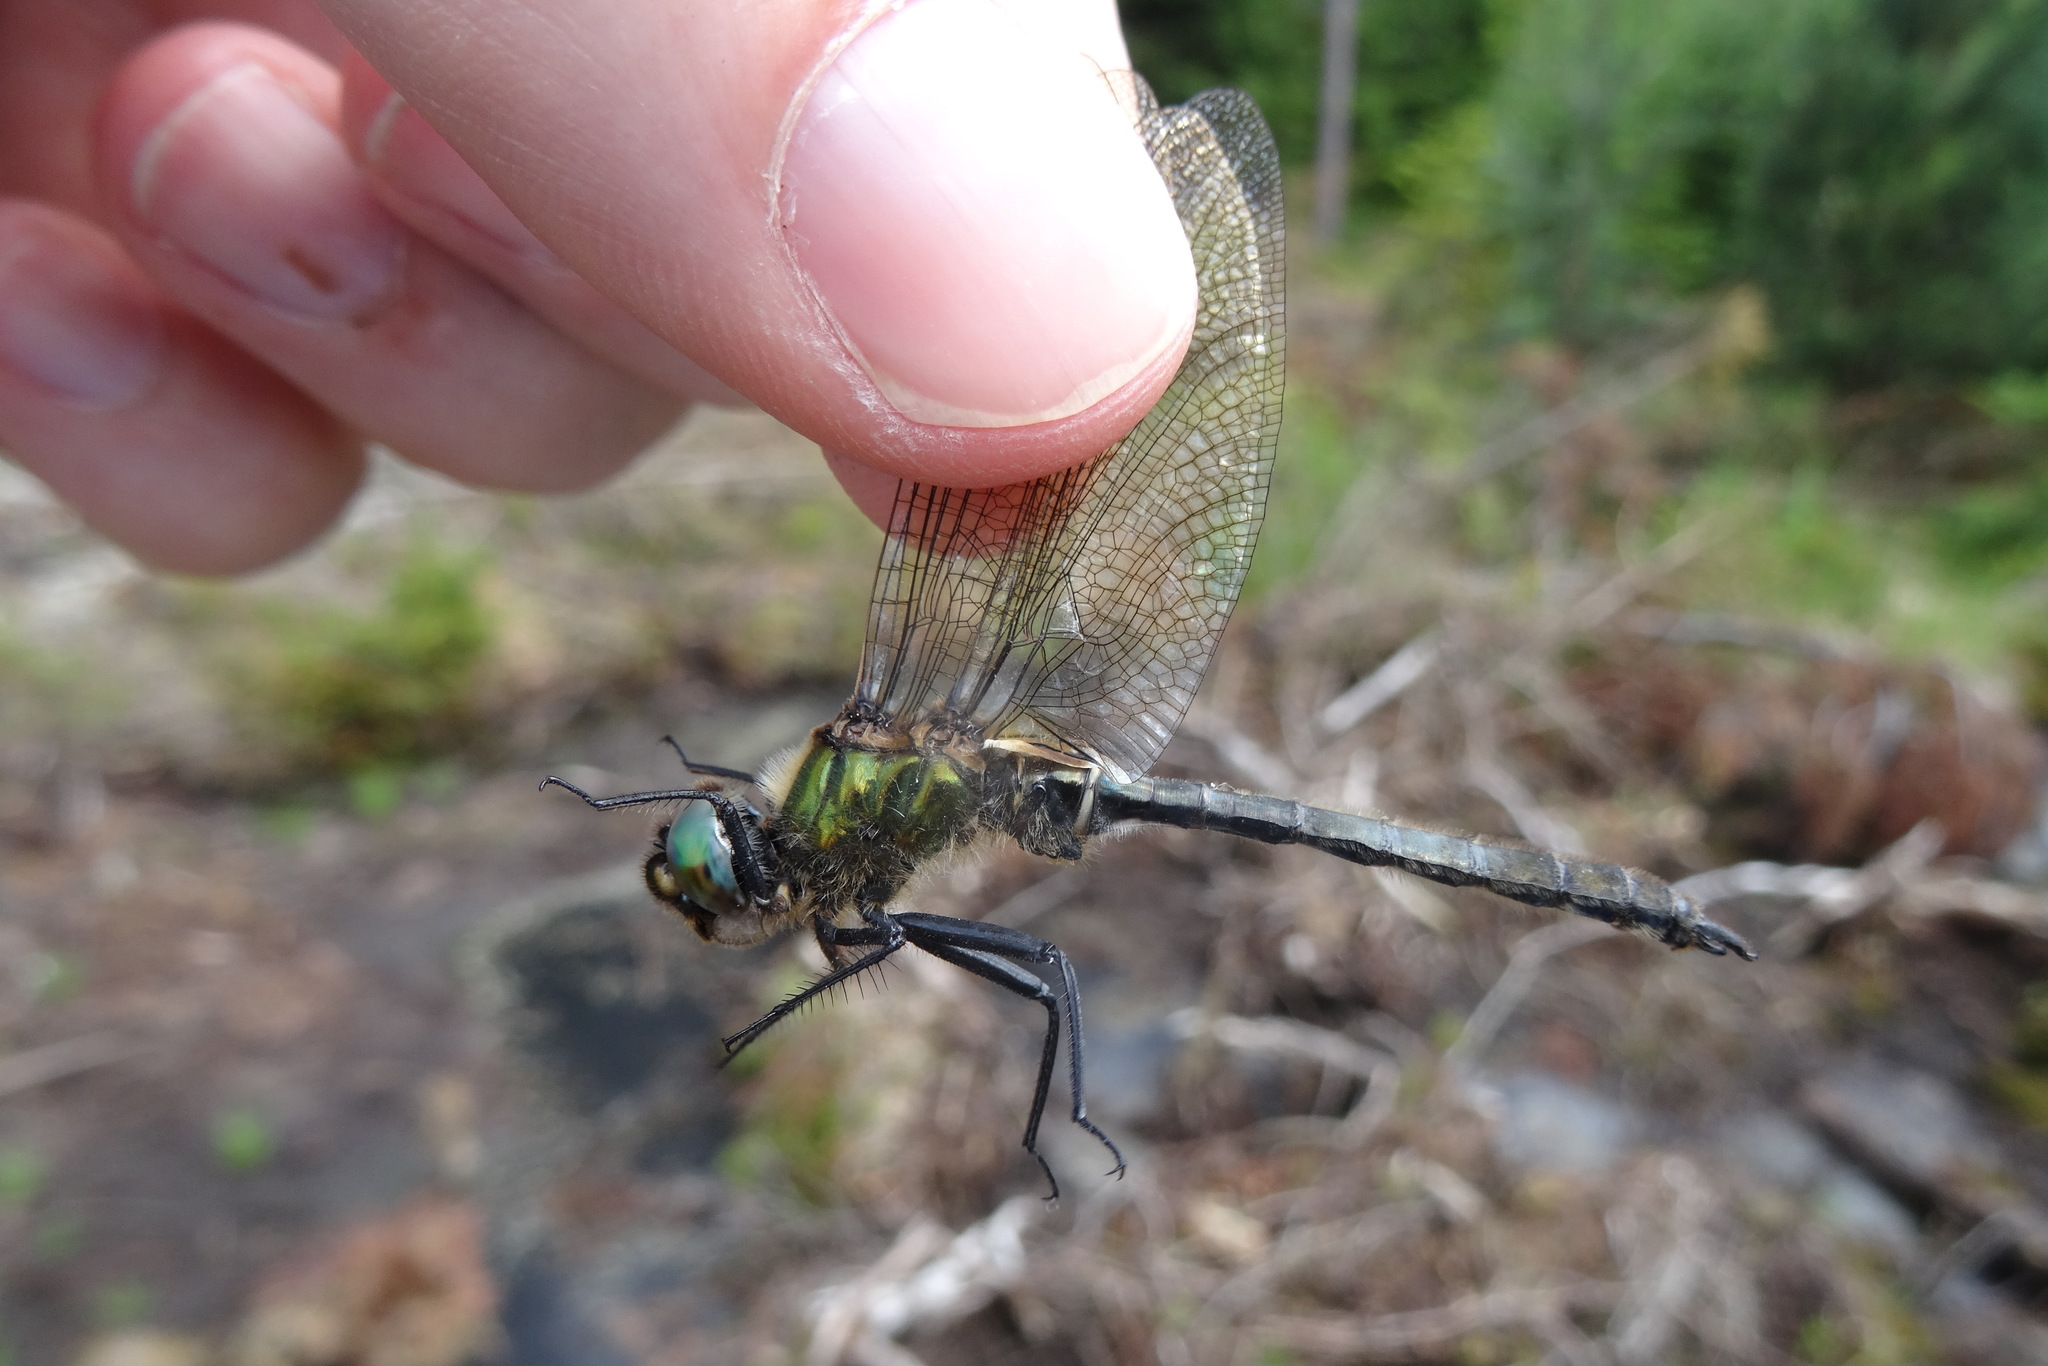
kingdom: Animalia
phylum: Arthropoda
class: Insecta
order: Odonata
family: Corduliidae
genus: Somatochlora
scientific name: Somatochlora alpestris
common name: Alpine emerald
